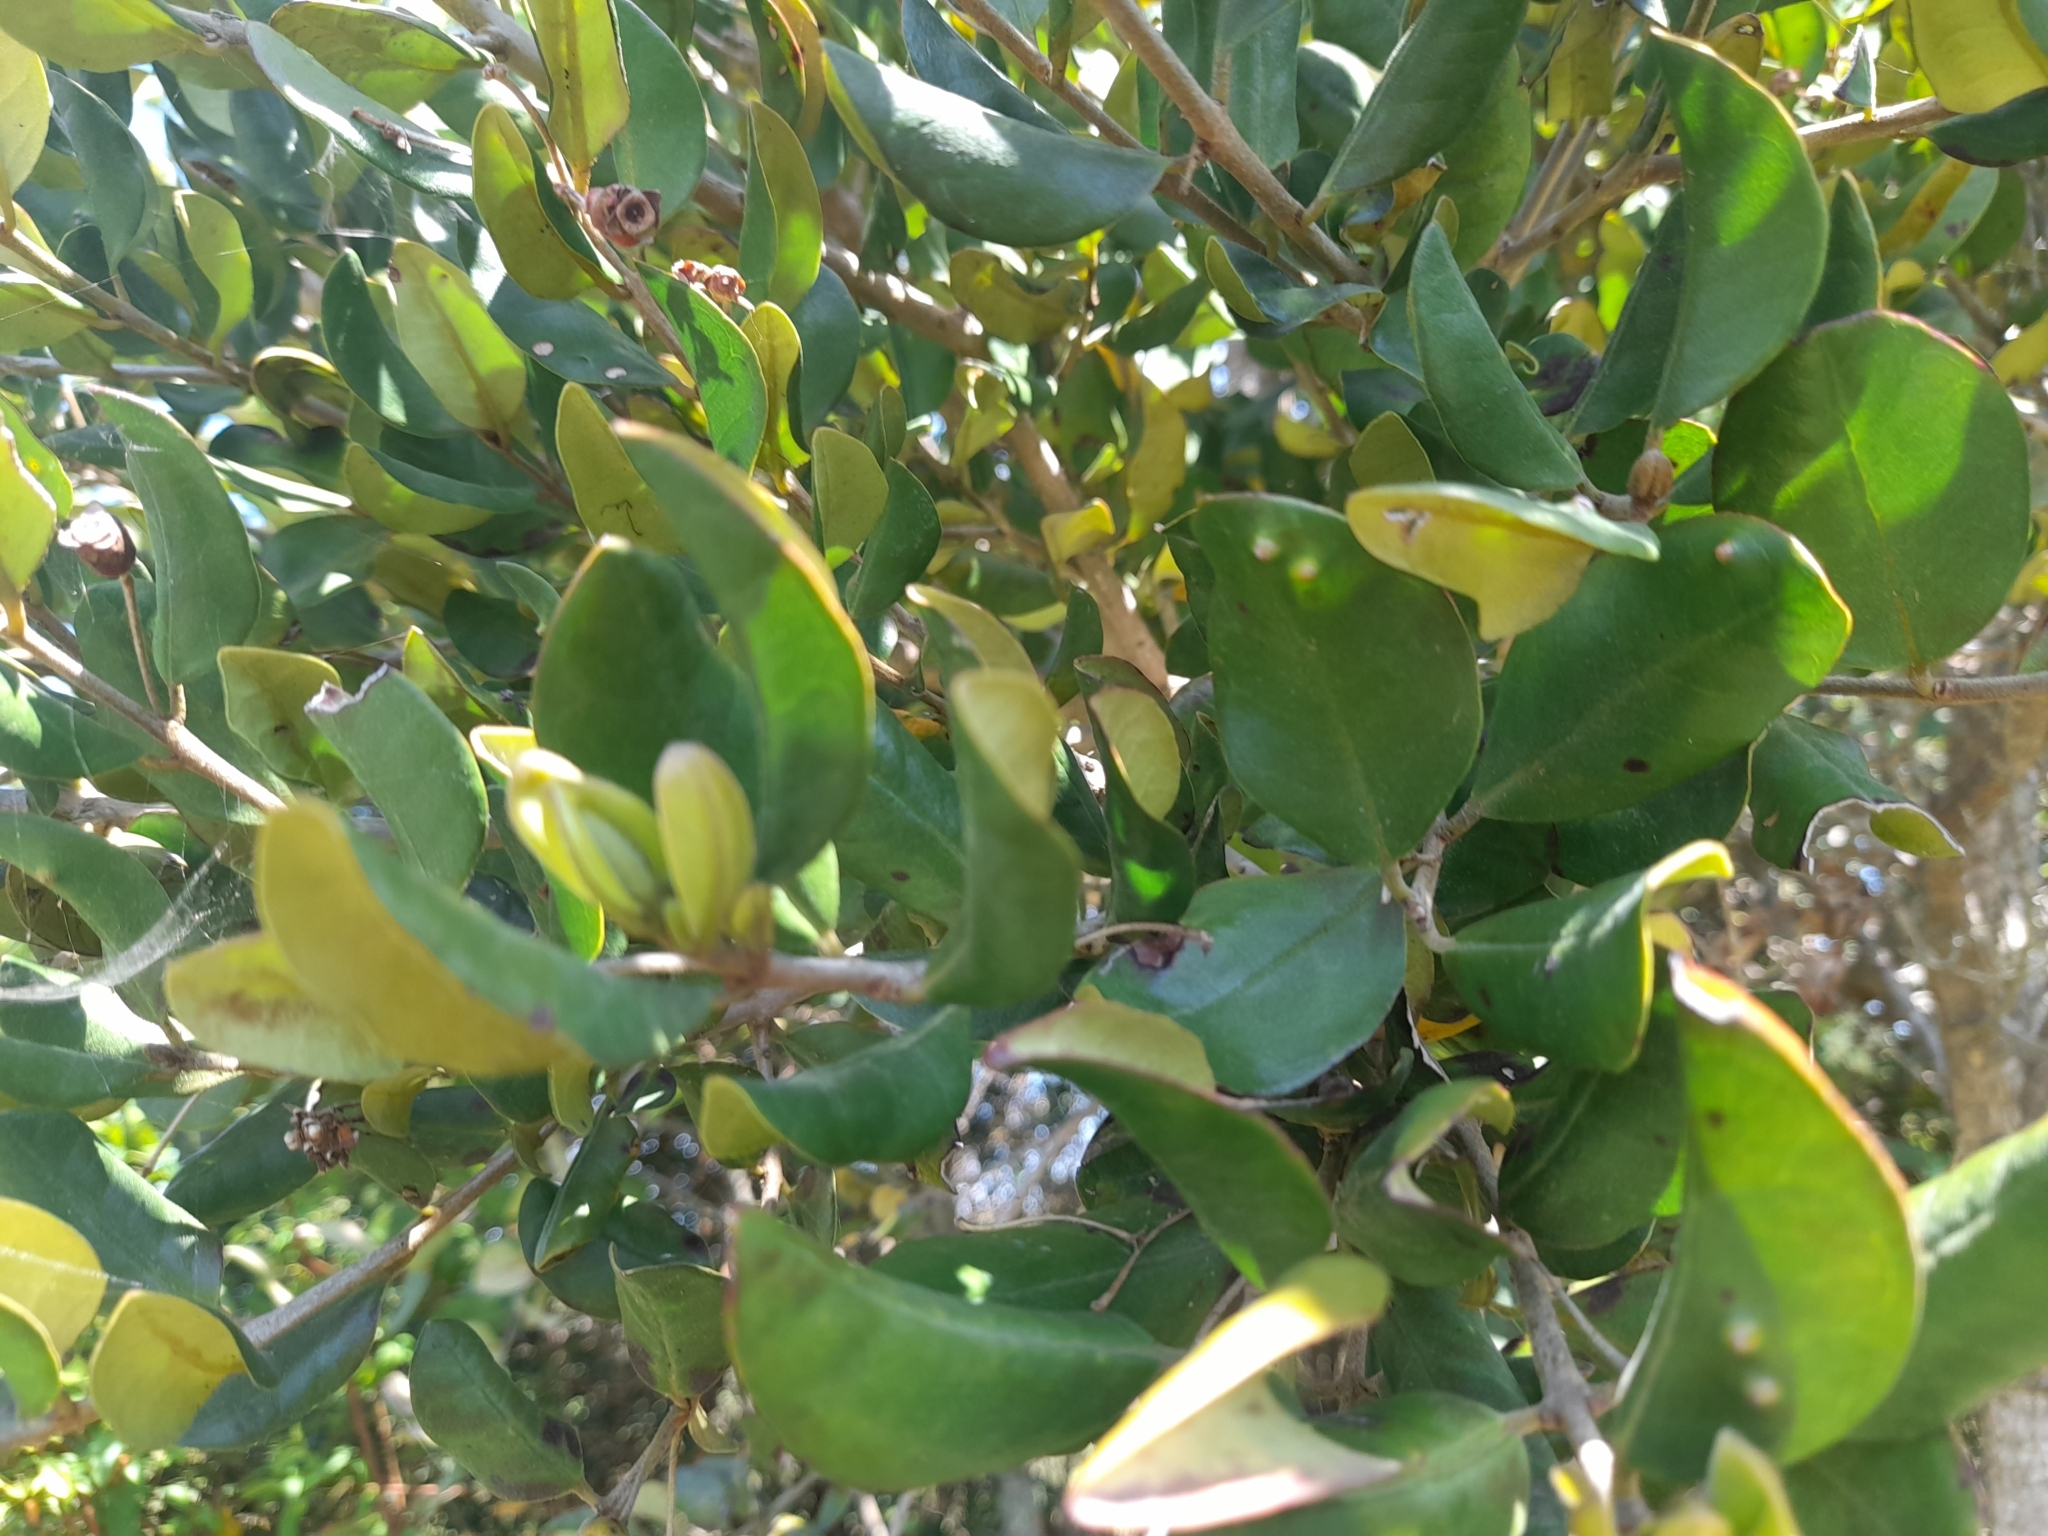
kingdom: Plantae
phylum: Tracheophyta
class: Magnoliopsida
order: Myrtales
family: Myrtaceae
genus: Myrceugenia
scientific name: Myrceugenia exsucca
